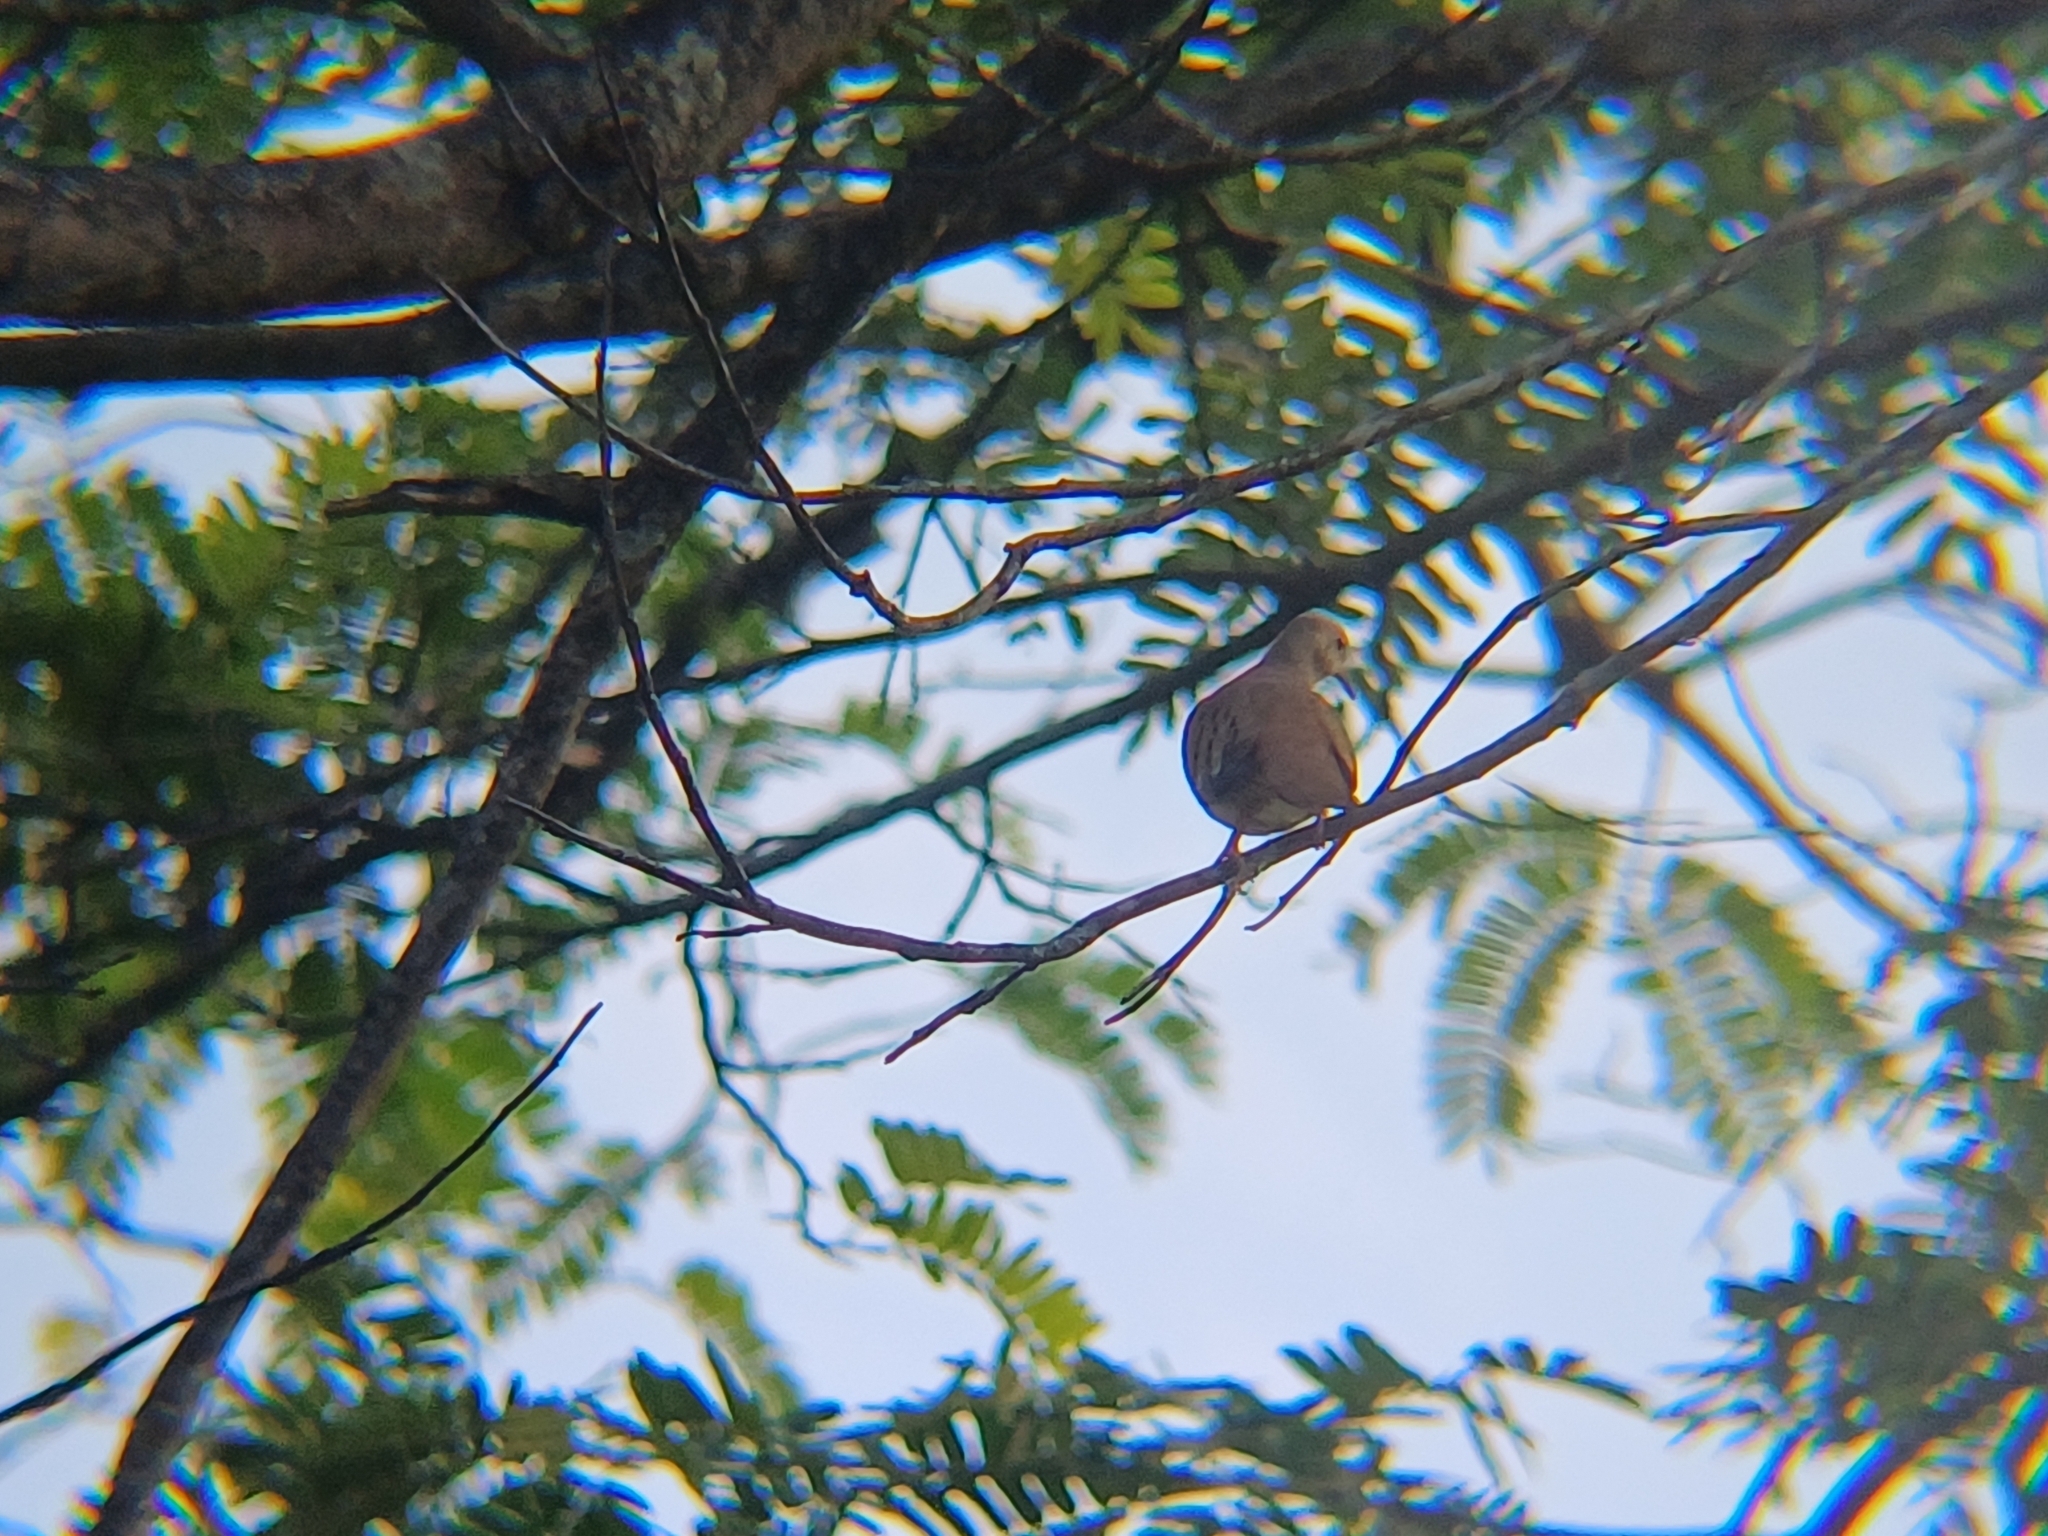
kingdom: Animalia
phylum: Chordata
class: Aves
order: Columbiformes
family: Columbidae
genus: Columbina
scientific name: Columbina talpacoti
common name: Ruddy ground dove
